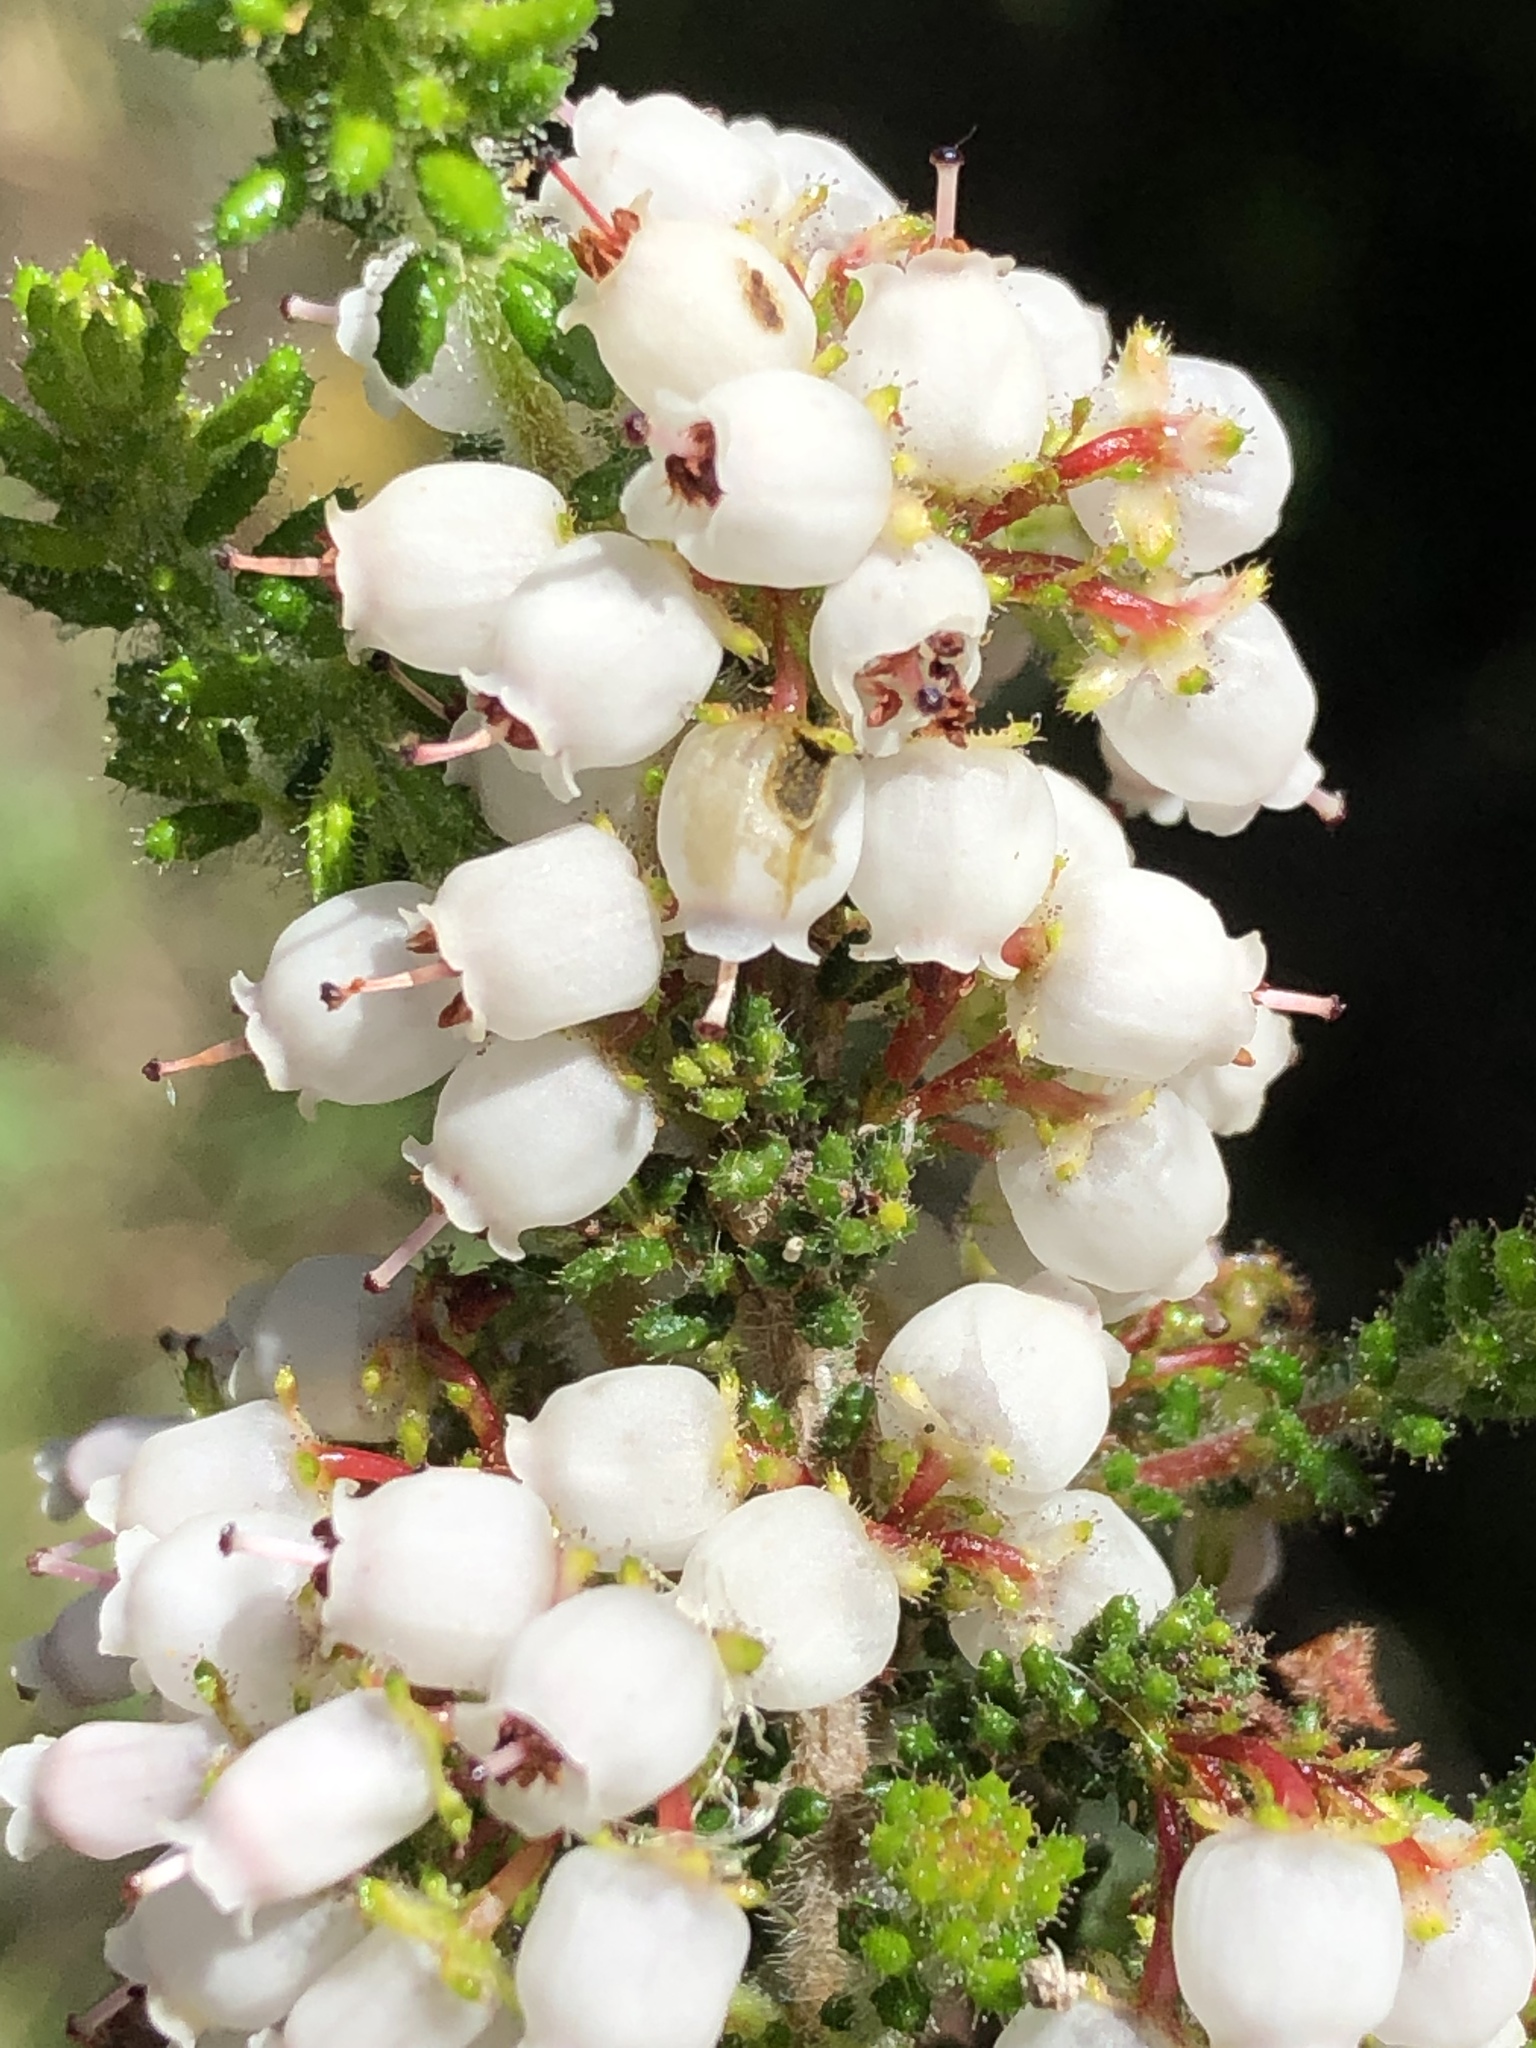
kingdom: Plantae
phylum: Tracheophyta
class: Magnoliopsida
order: Ericales
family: Ericaceae
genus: Erica
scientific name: Erica scabriuscula
